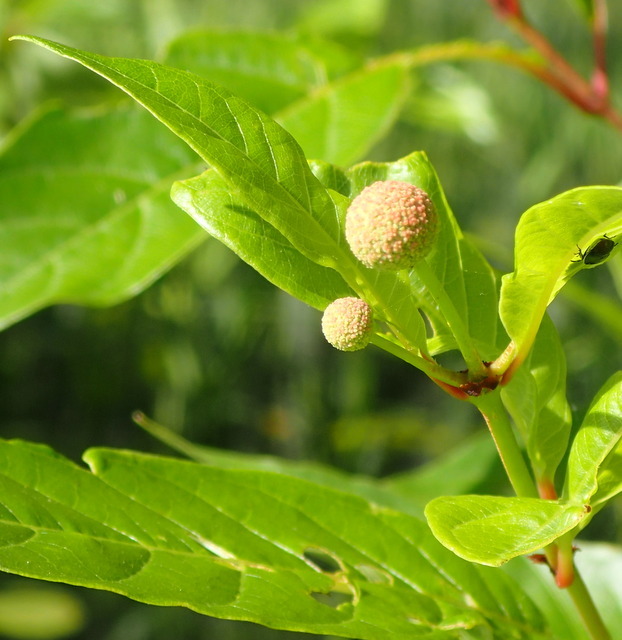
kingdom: Plantae
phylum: Tracheophyta
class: Magnoliopsida
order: Gentianales
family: Rubiaceae
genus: Cephalanthus
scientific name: Cephalanthus occidentalis
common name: Button-willow
